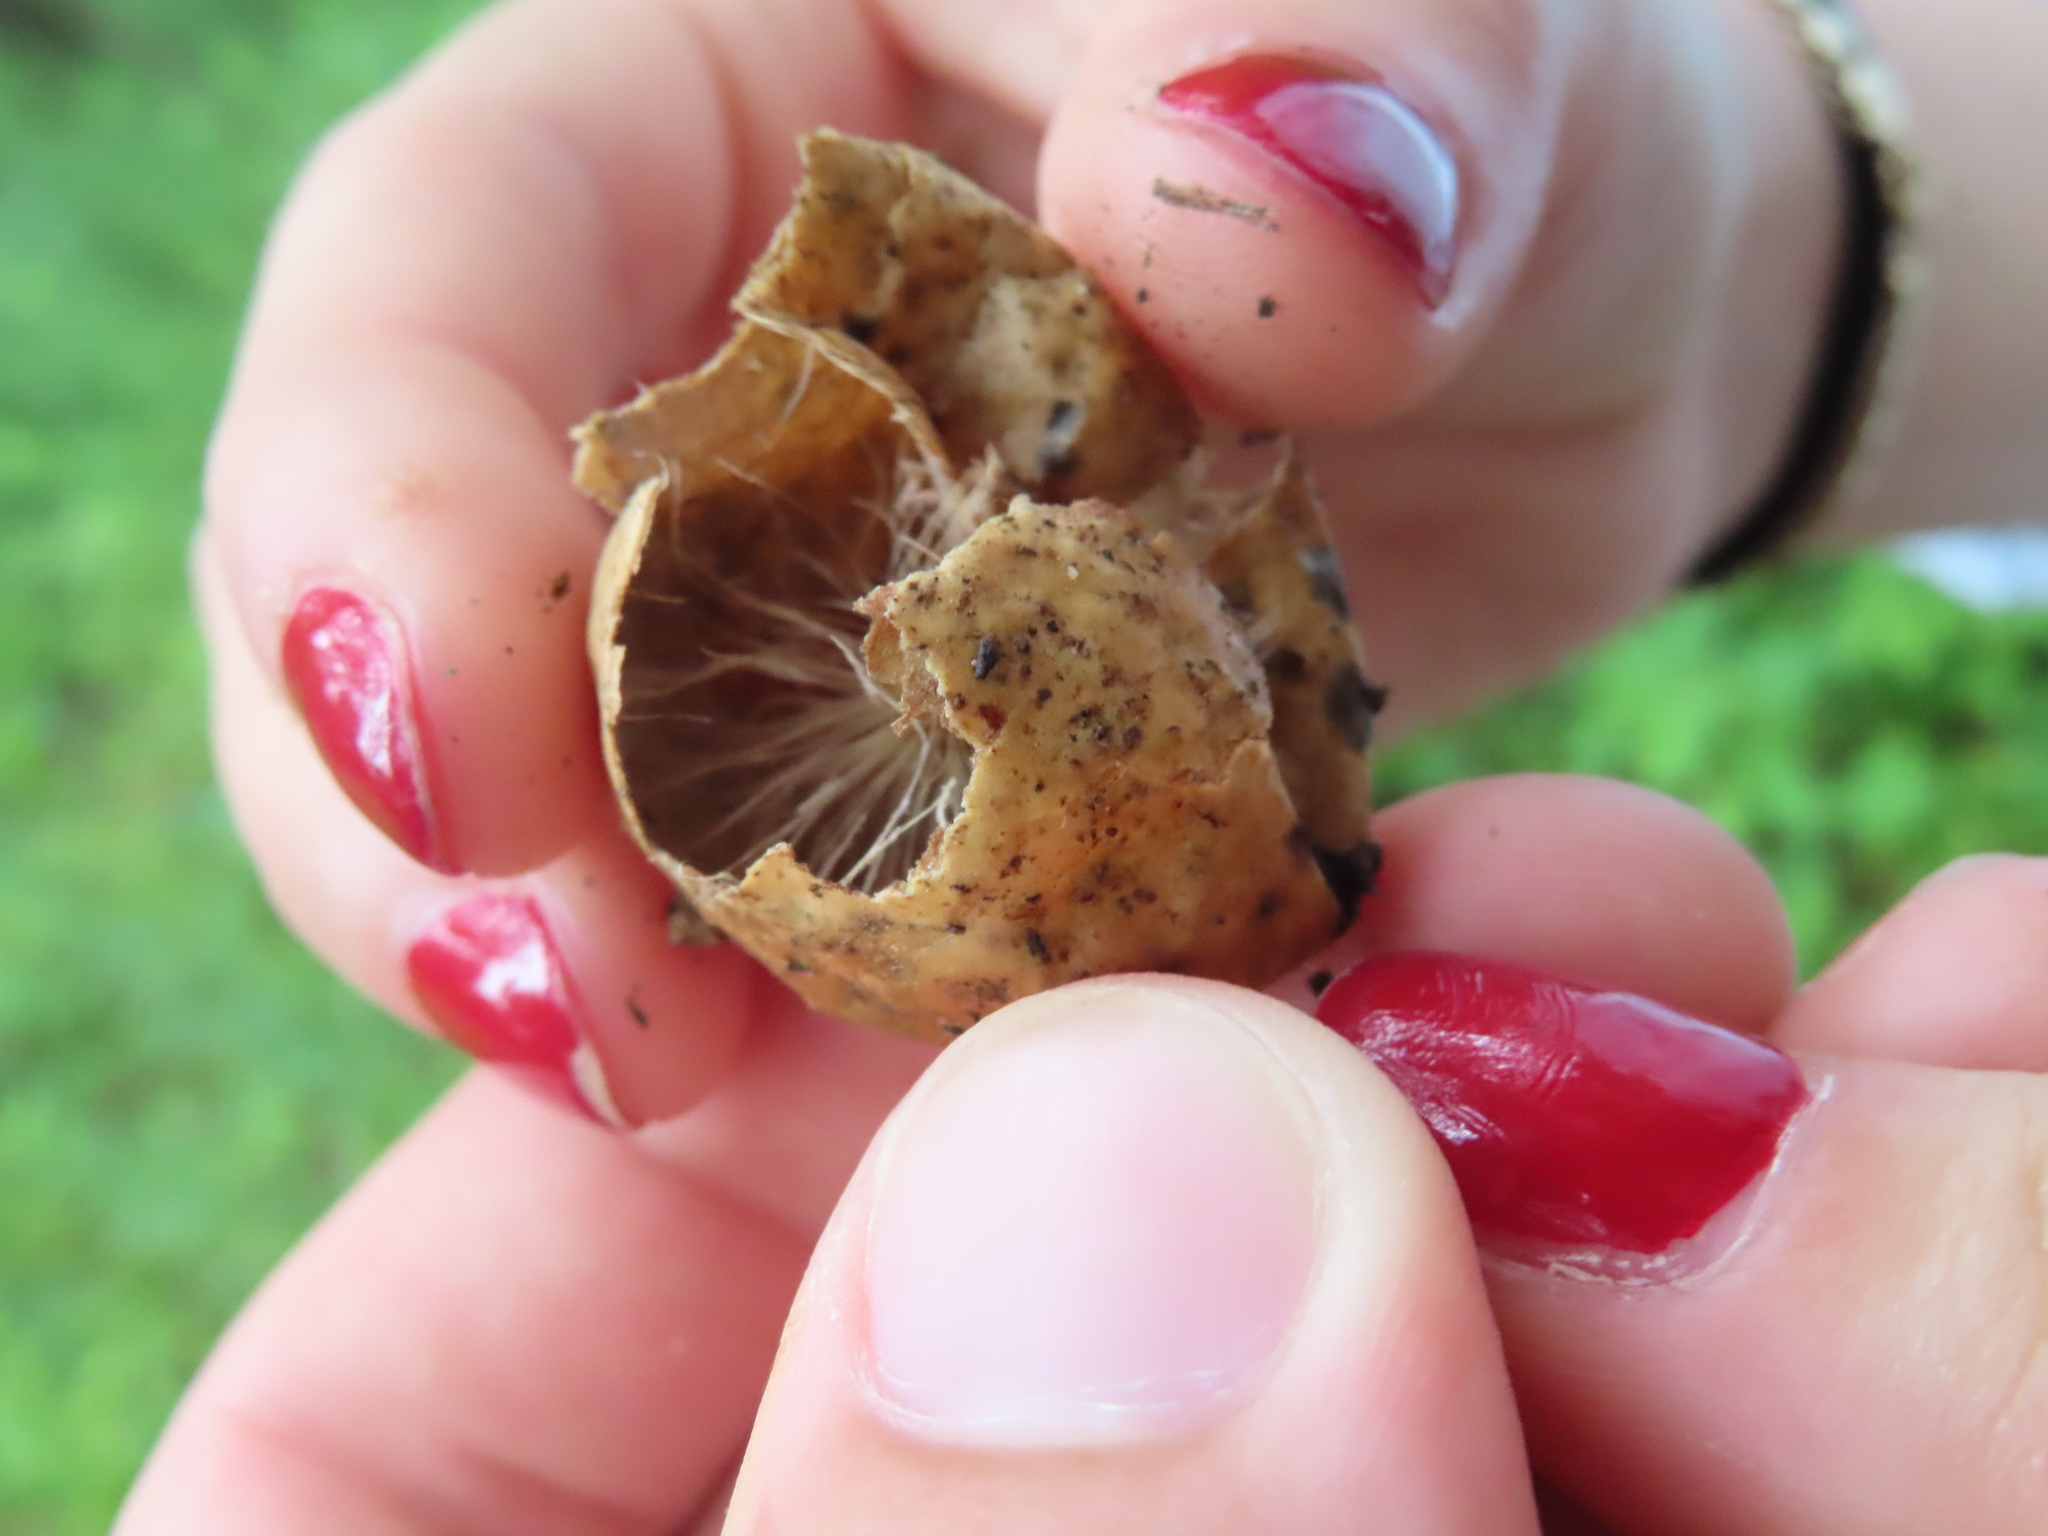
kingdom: Animalia
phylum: Arthropoda
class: Insecta
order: Hymenoptera
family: Cynipidae
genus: Amphibolips
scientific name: Amphibolips
